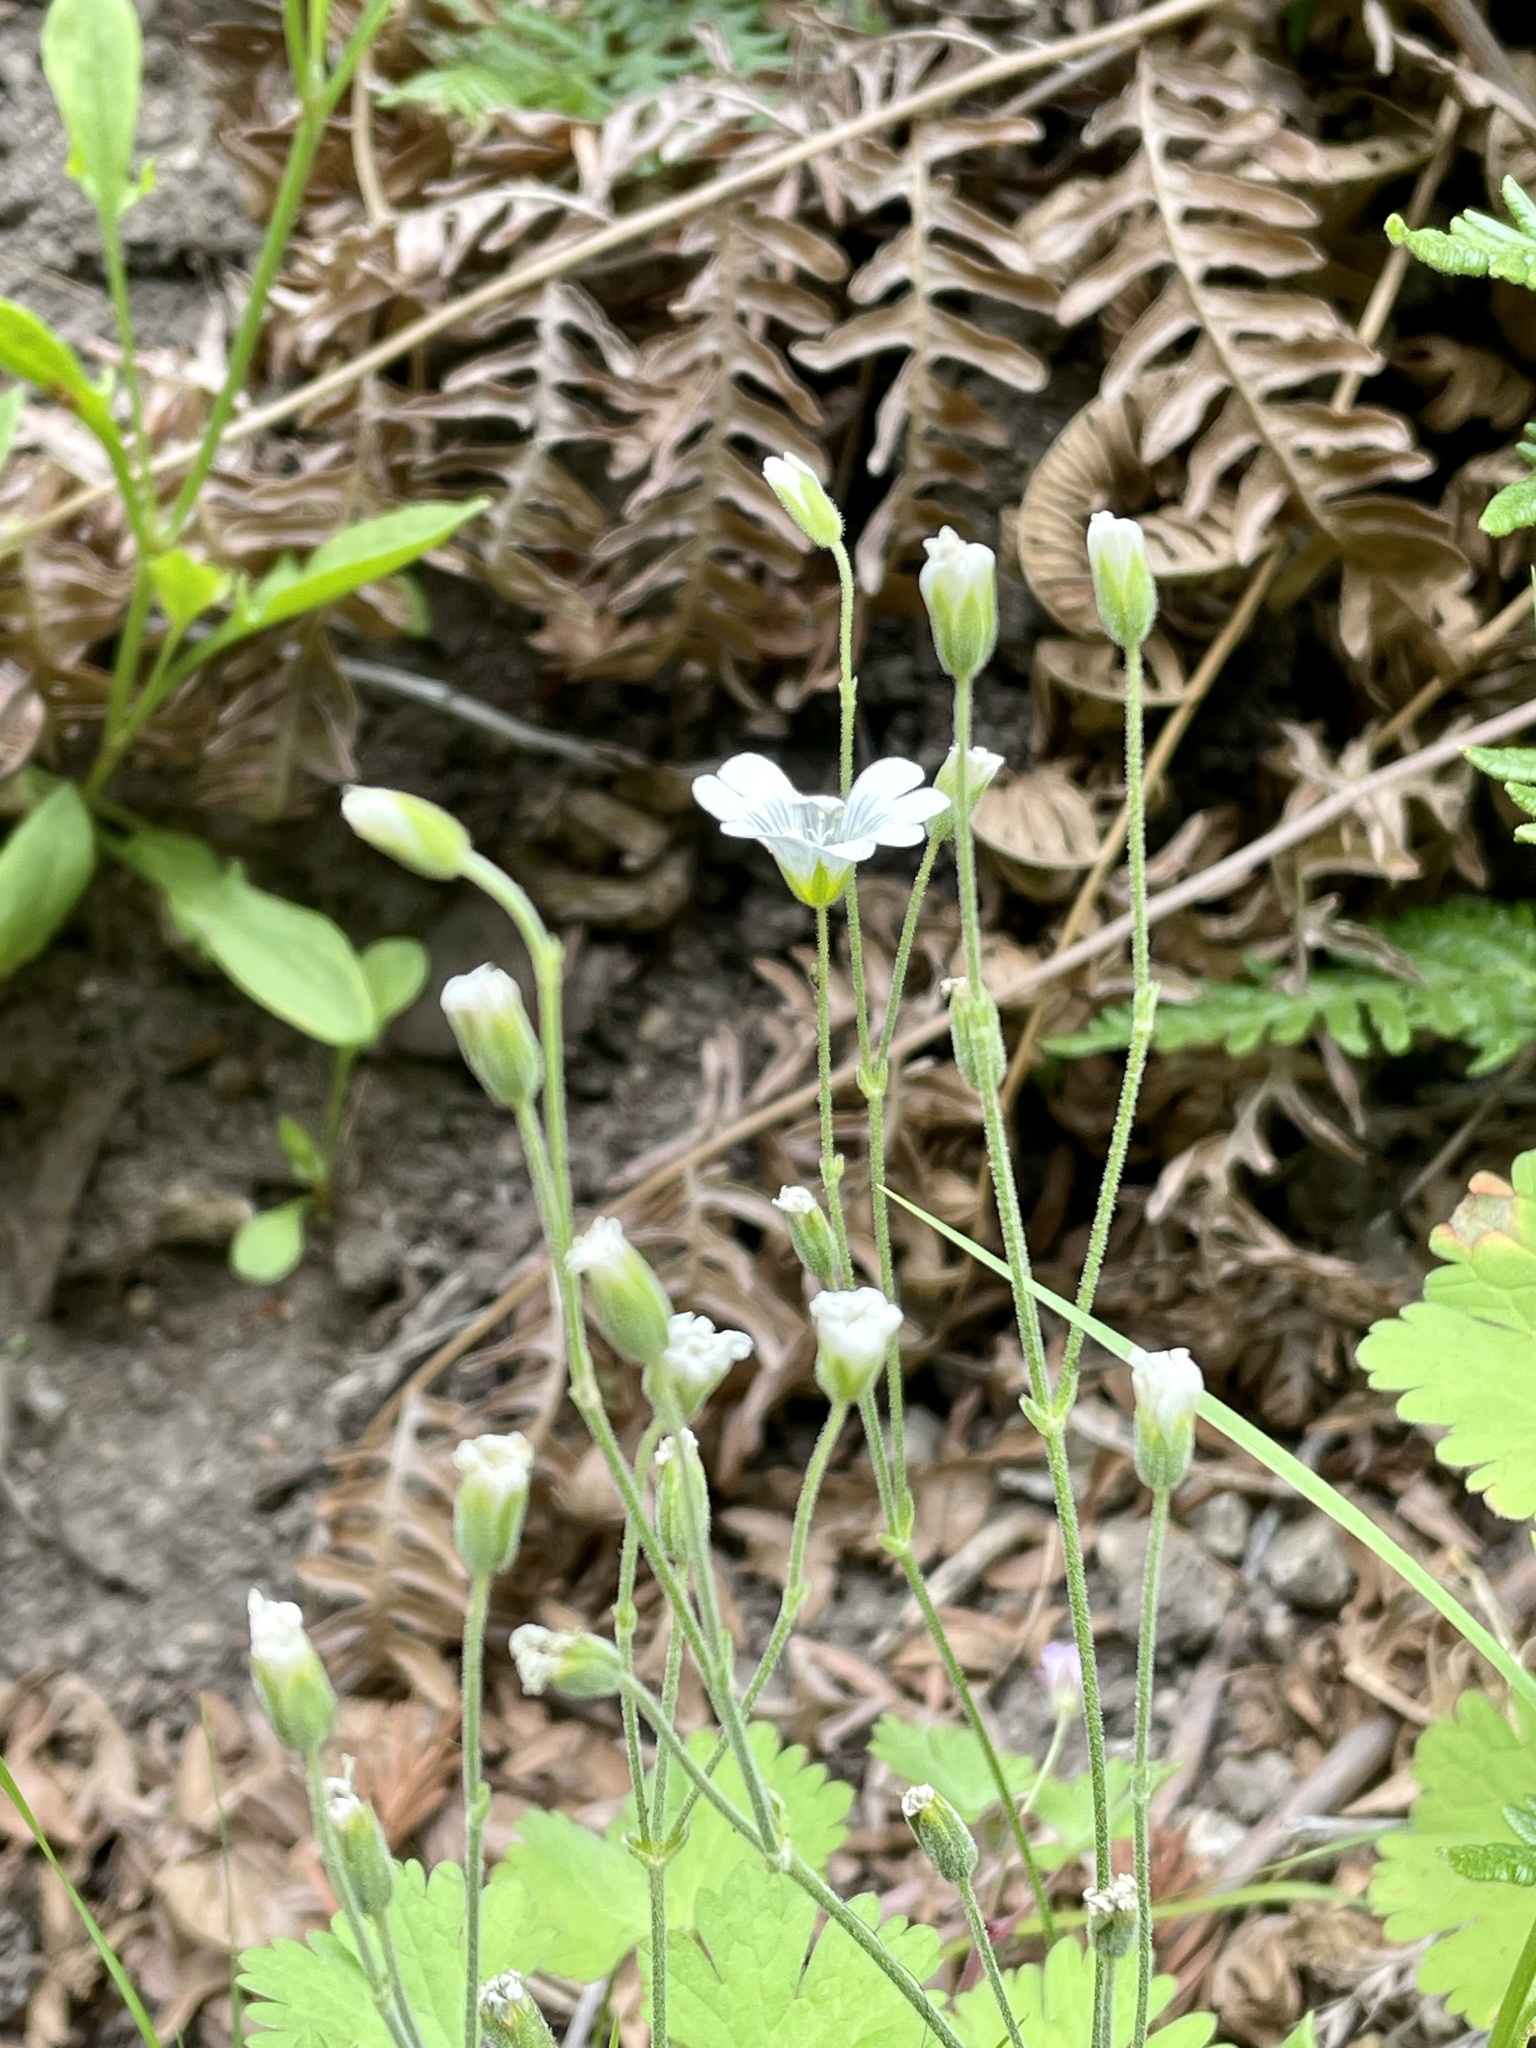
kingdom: Plantae
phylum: Tracheophyta
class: Magnoliopsida
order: Caryophyllales
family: Caryophyllaceae
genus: Cerastium
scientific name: Cerastium arvense
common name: Field mouse-ear
